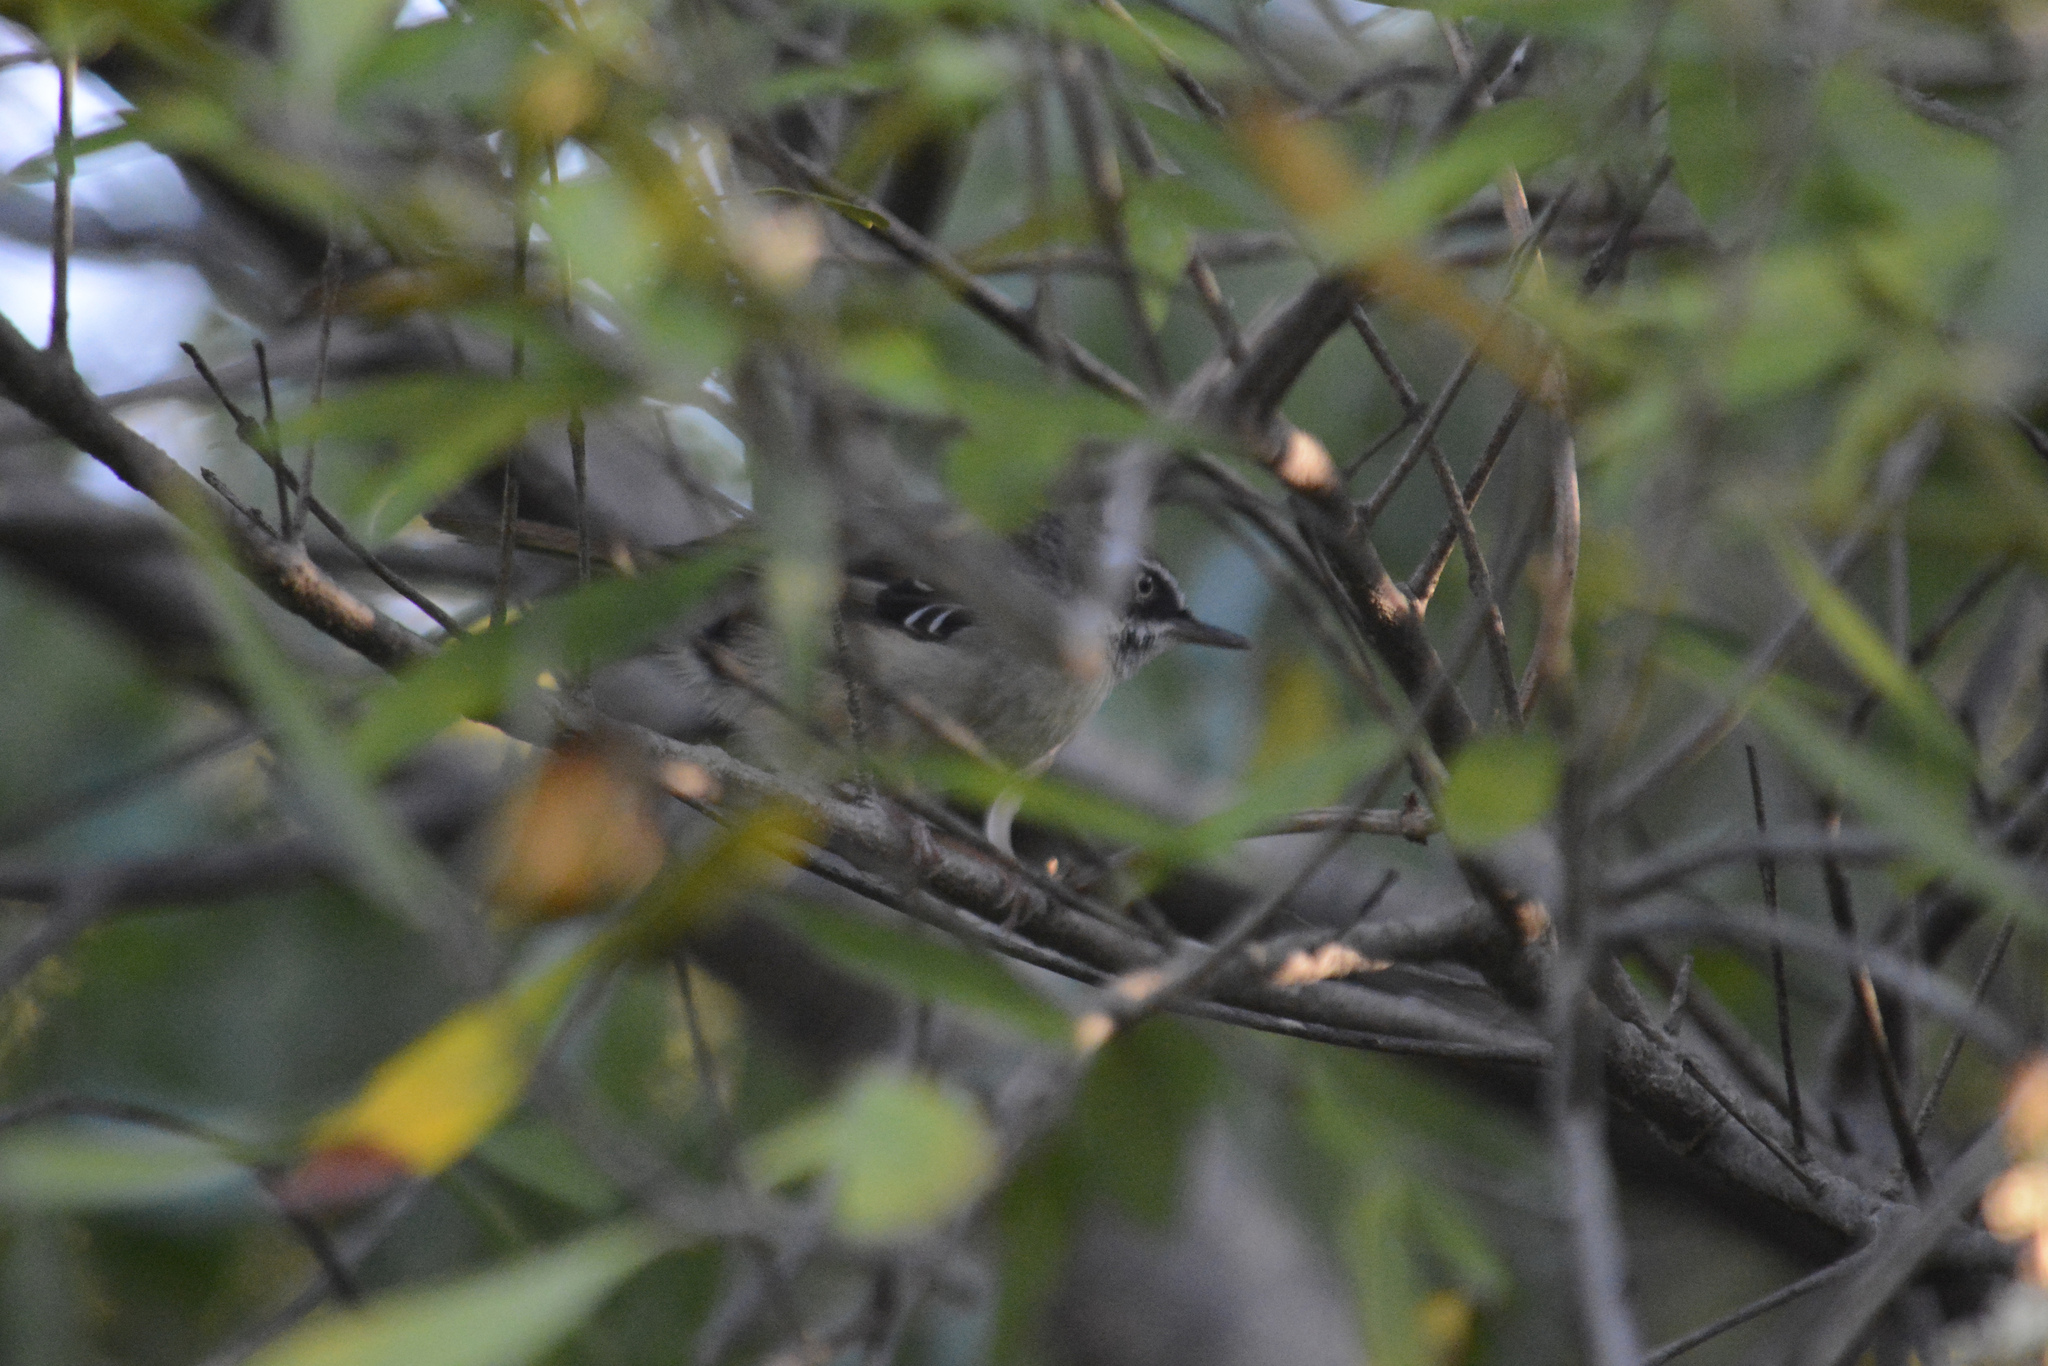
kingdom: Animalia
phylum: Chordata
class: Aves
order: Passeriformes
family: Acanthizidae
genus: Sericornis
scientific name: Sericornis frontalis
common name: White-browed scrubwren
